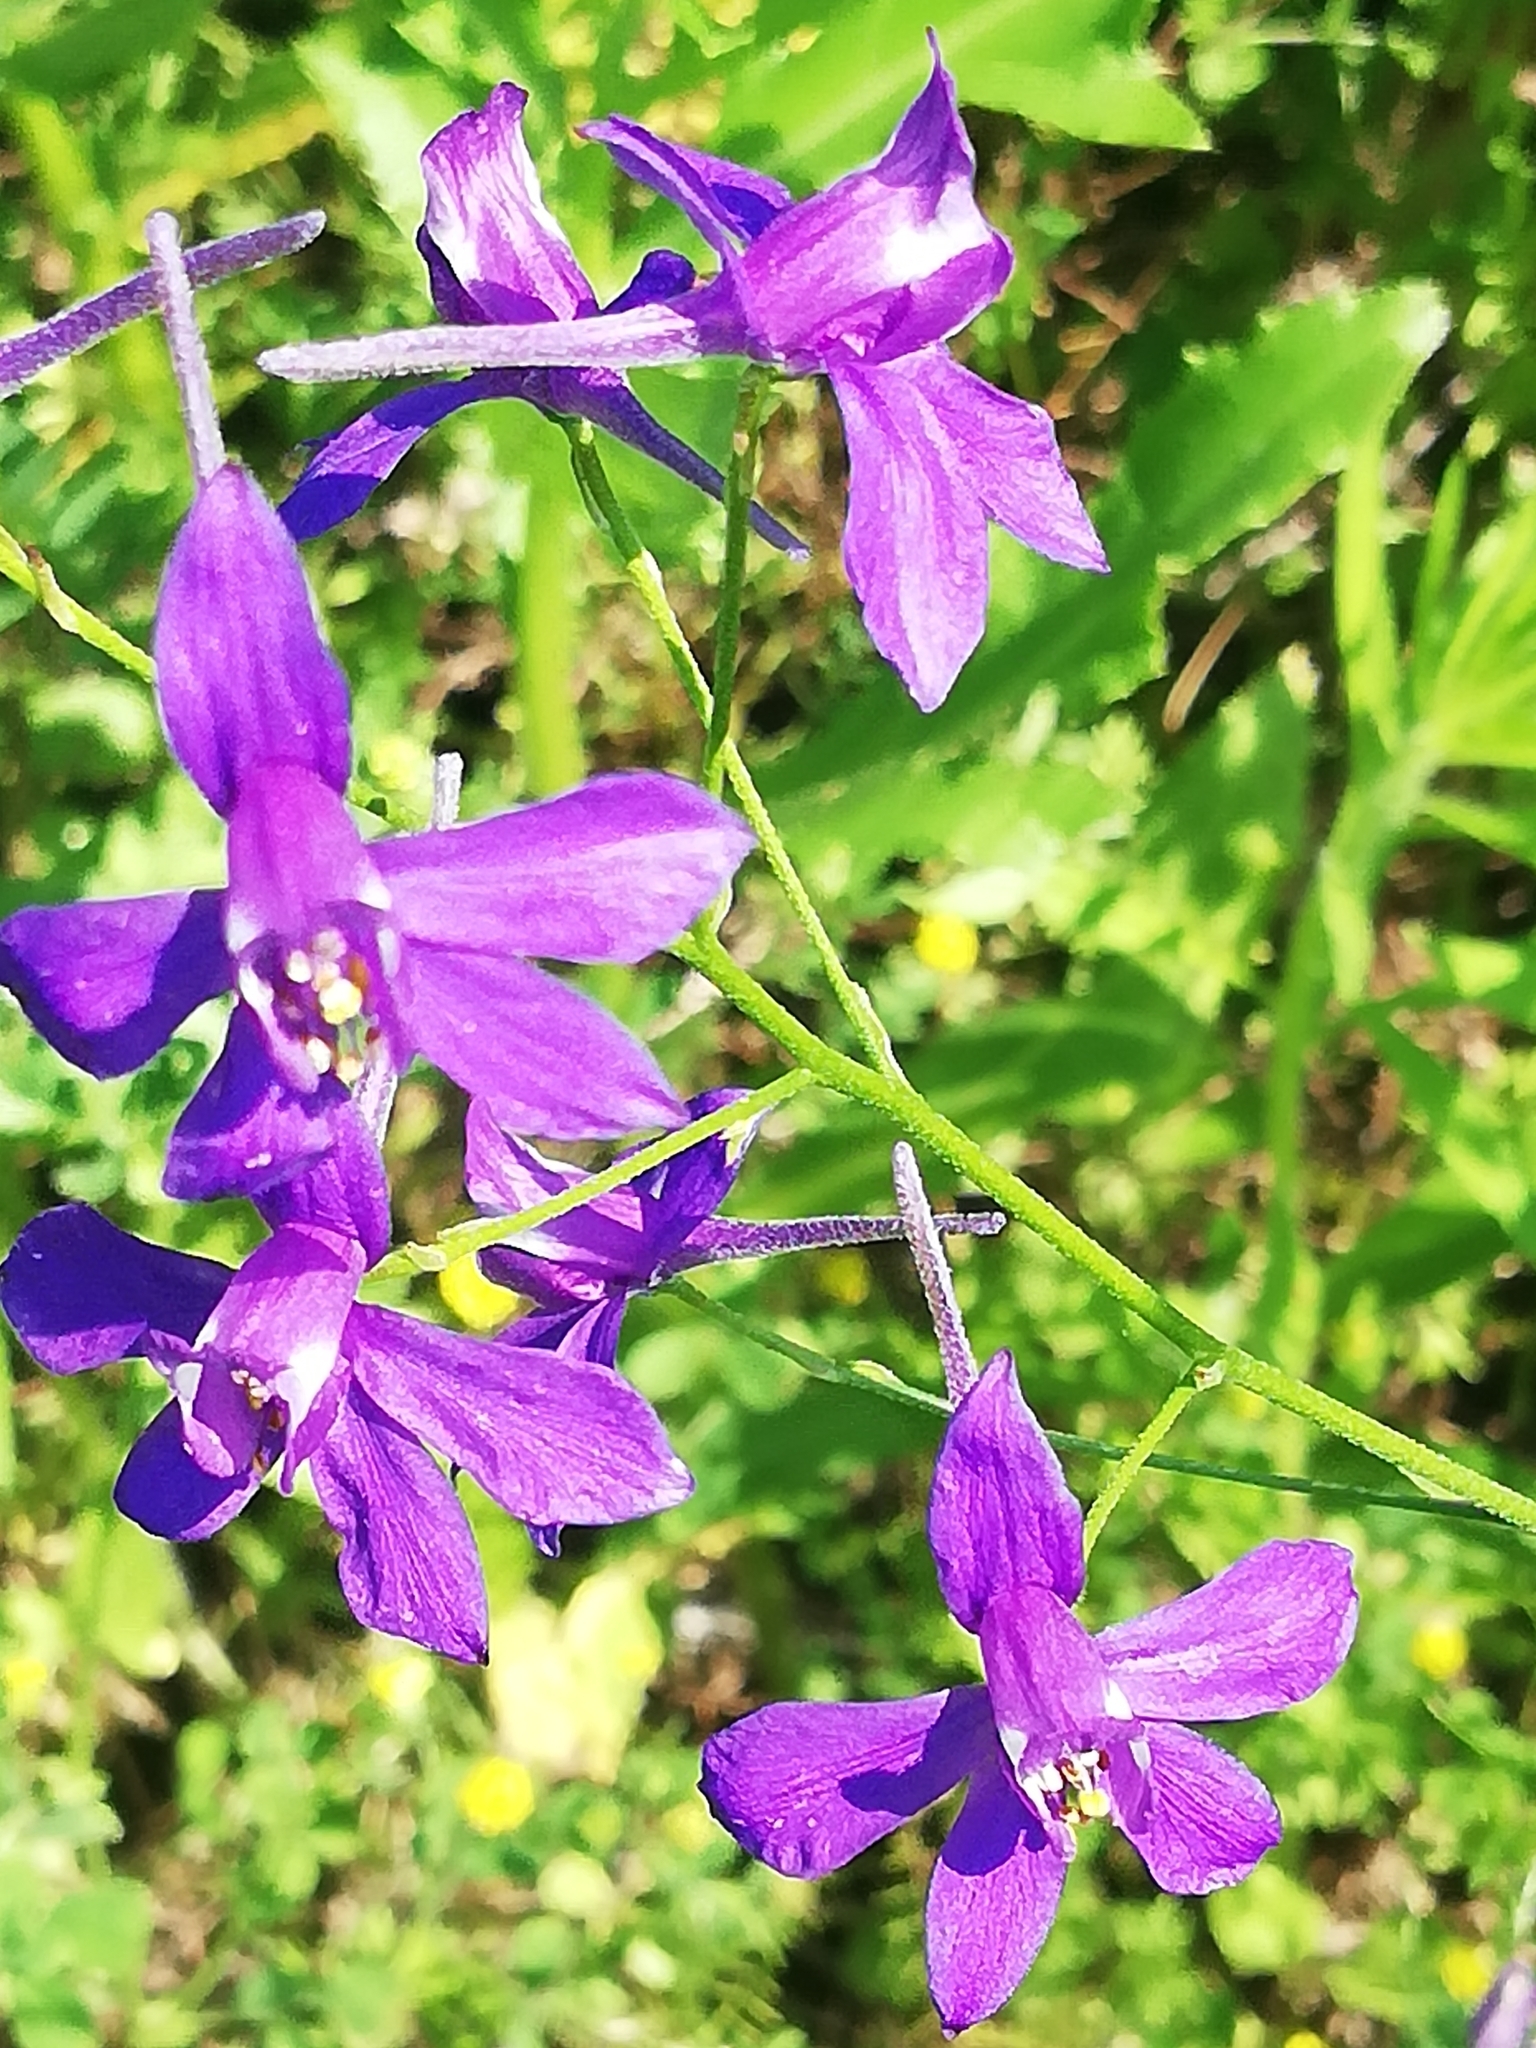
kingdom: Plantae
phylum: Tracheophyta
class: Magnoliopsida
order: Ranunculales
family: Ranunculaceae
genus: Delphinium
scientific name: Delphinium consolida
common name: Branching larkspur
